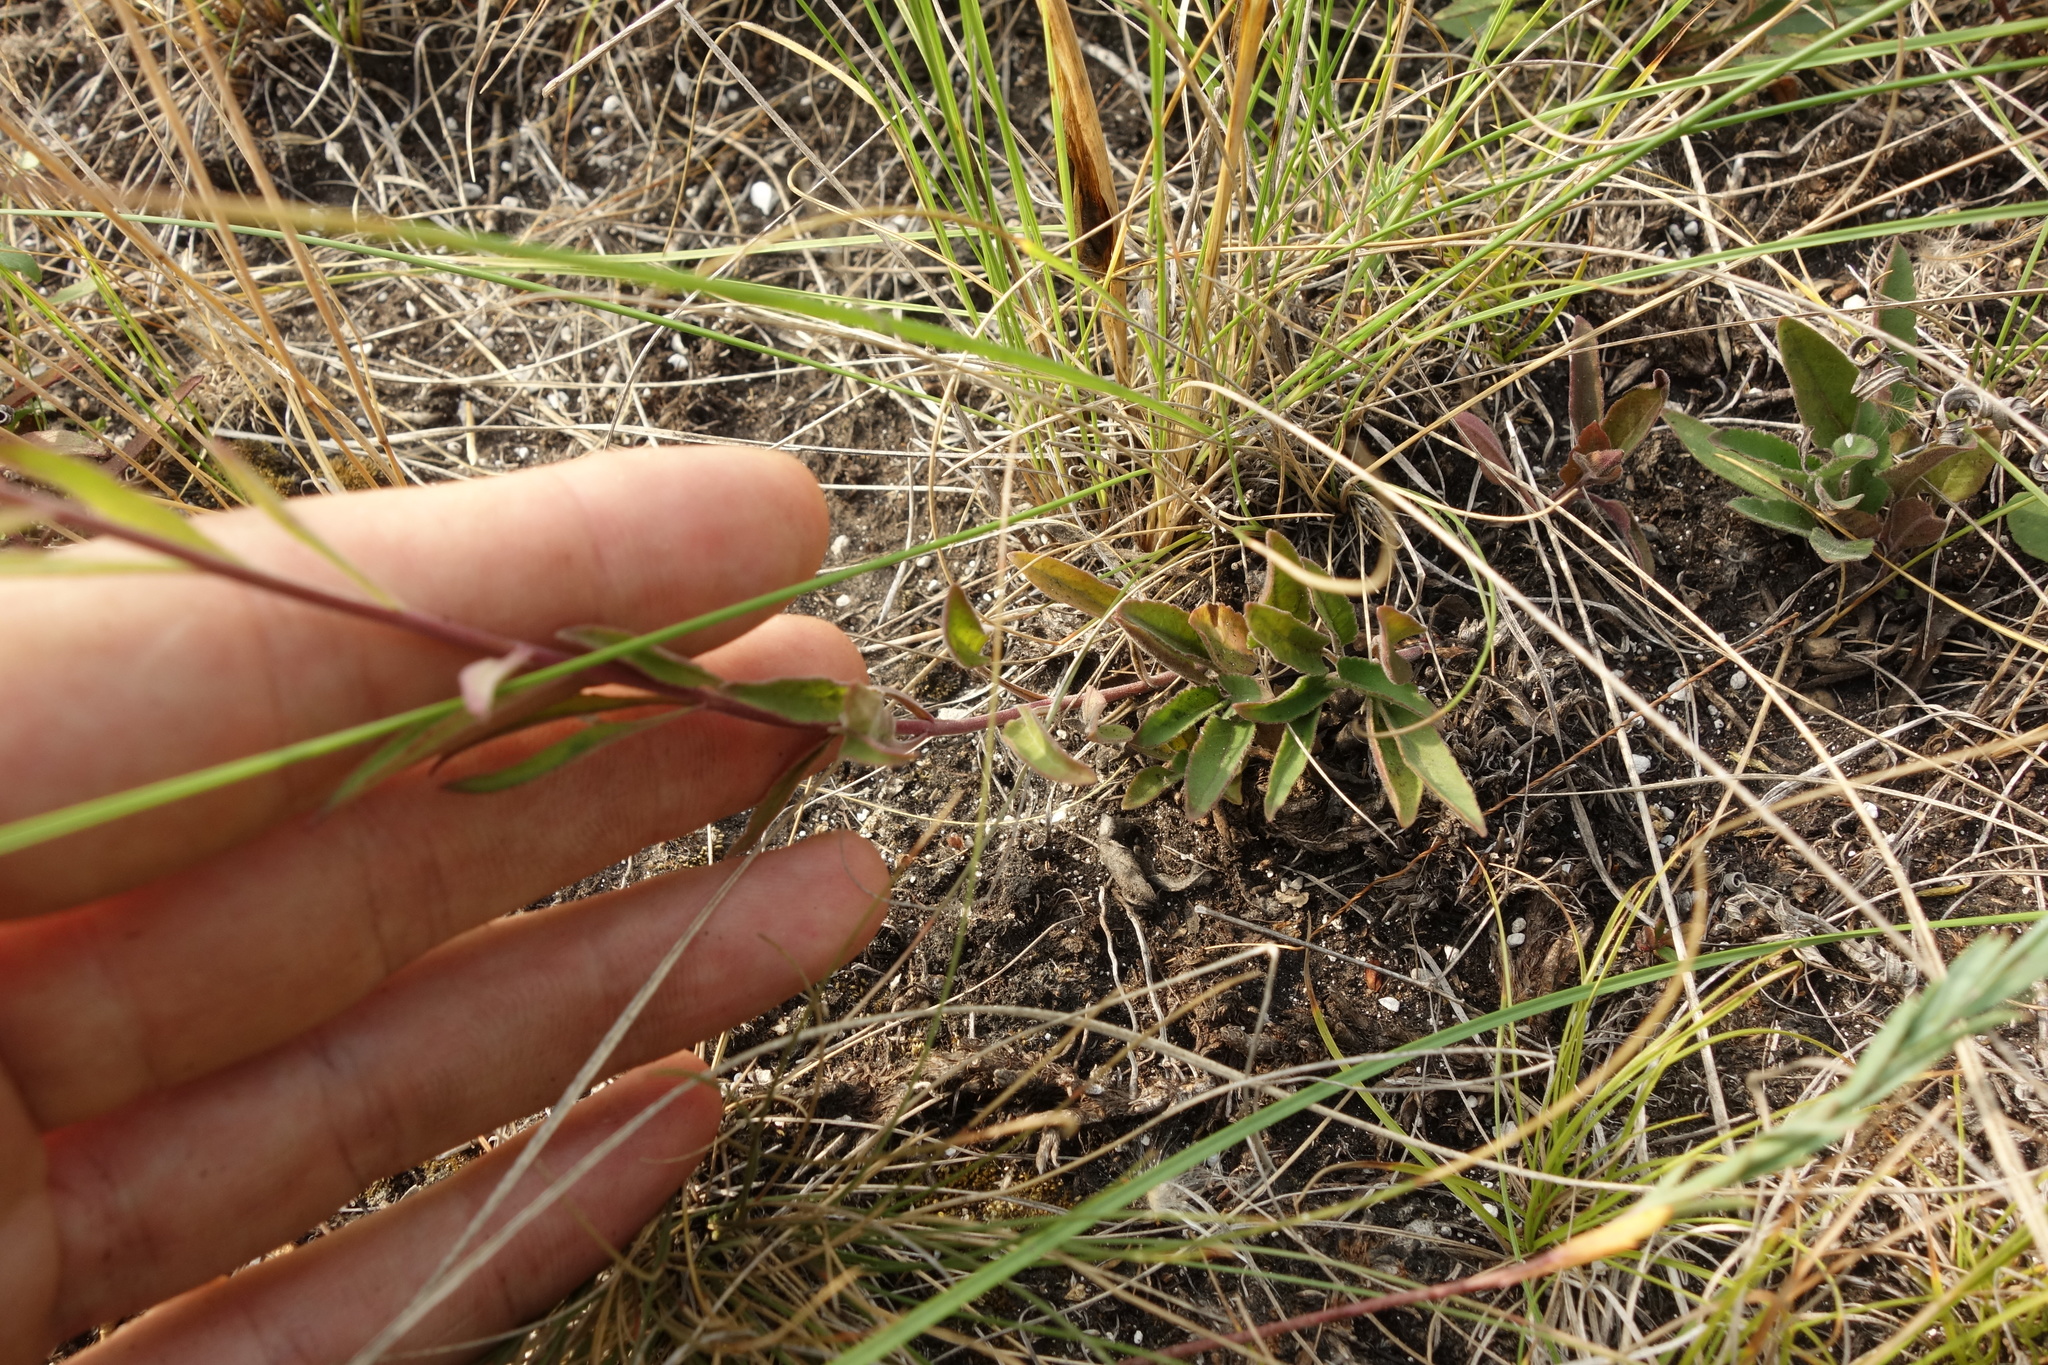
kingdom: Plantae
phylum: Tracheophyta
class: Magnoliopsida
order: Lamiales
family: Plantaginaceae
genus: Veronica
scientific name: Veronica spicata
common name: Spiked speedwell
